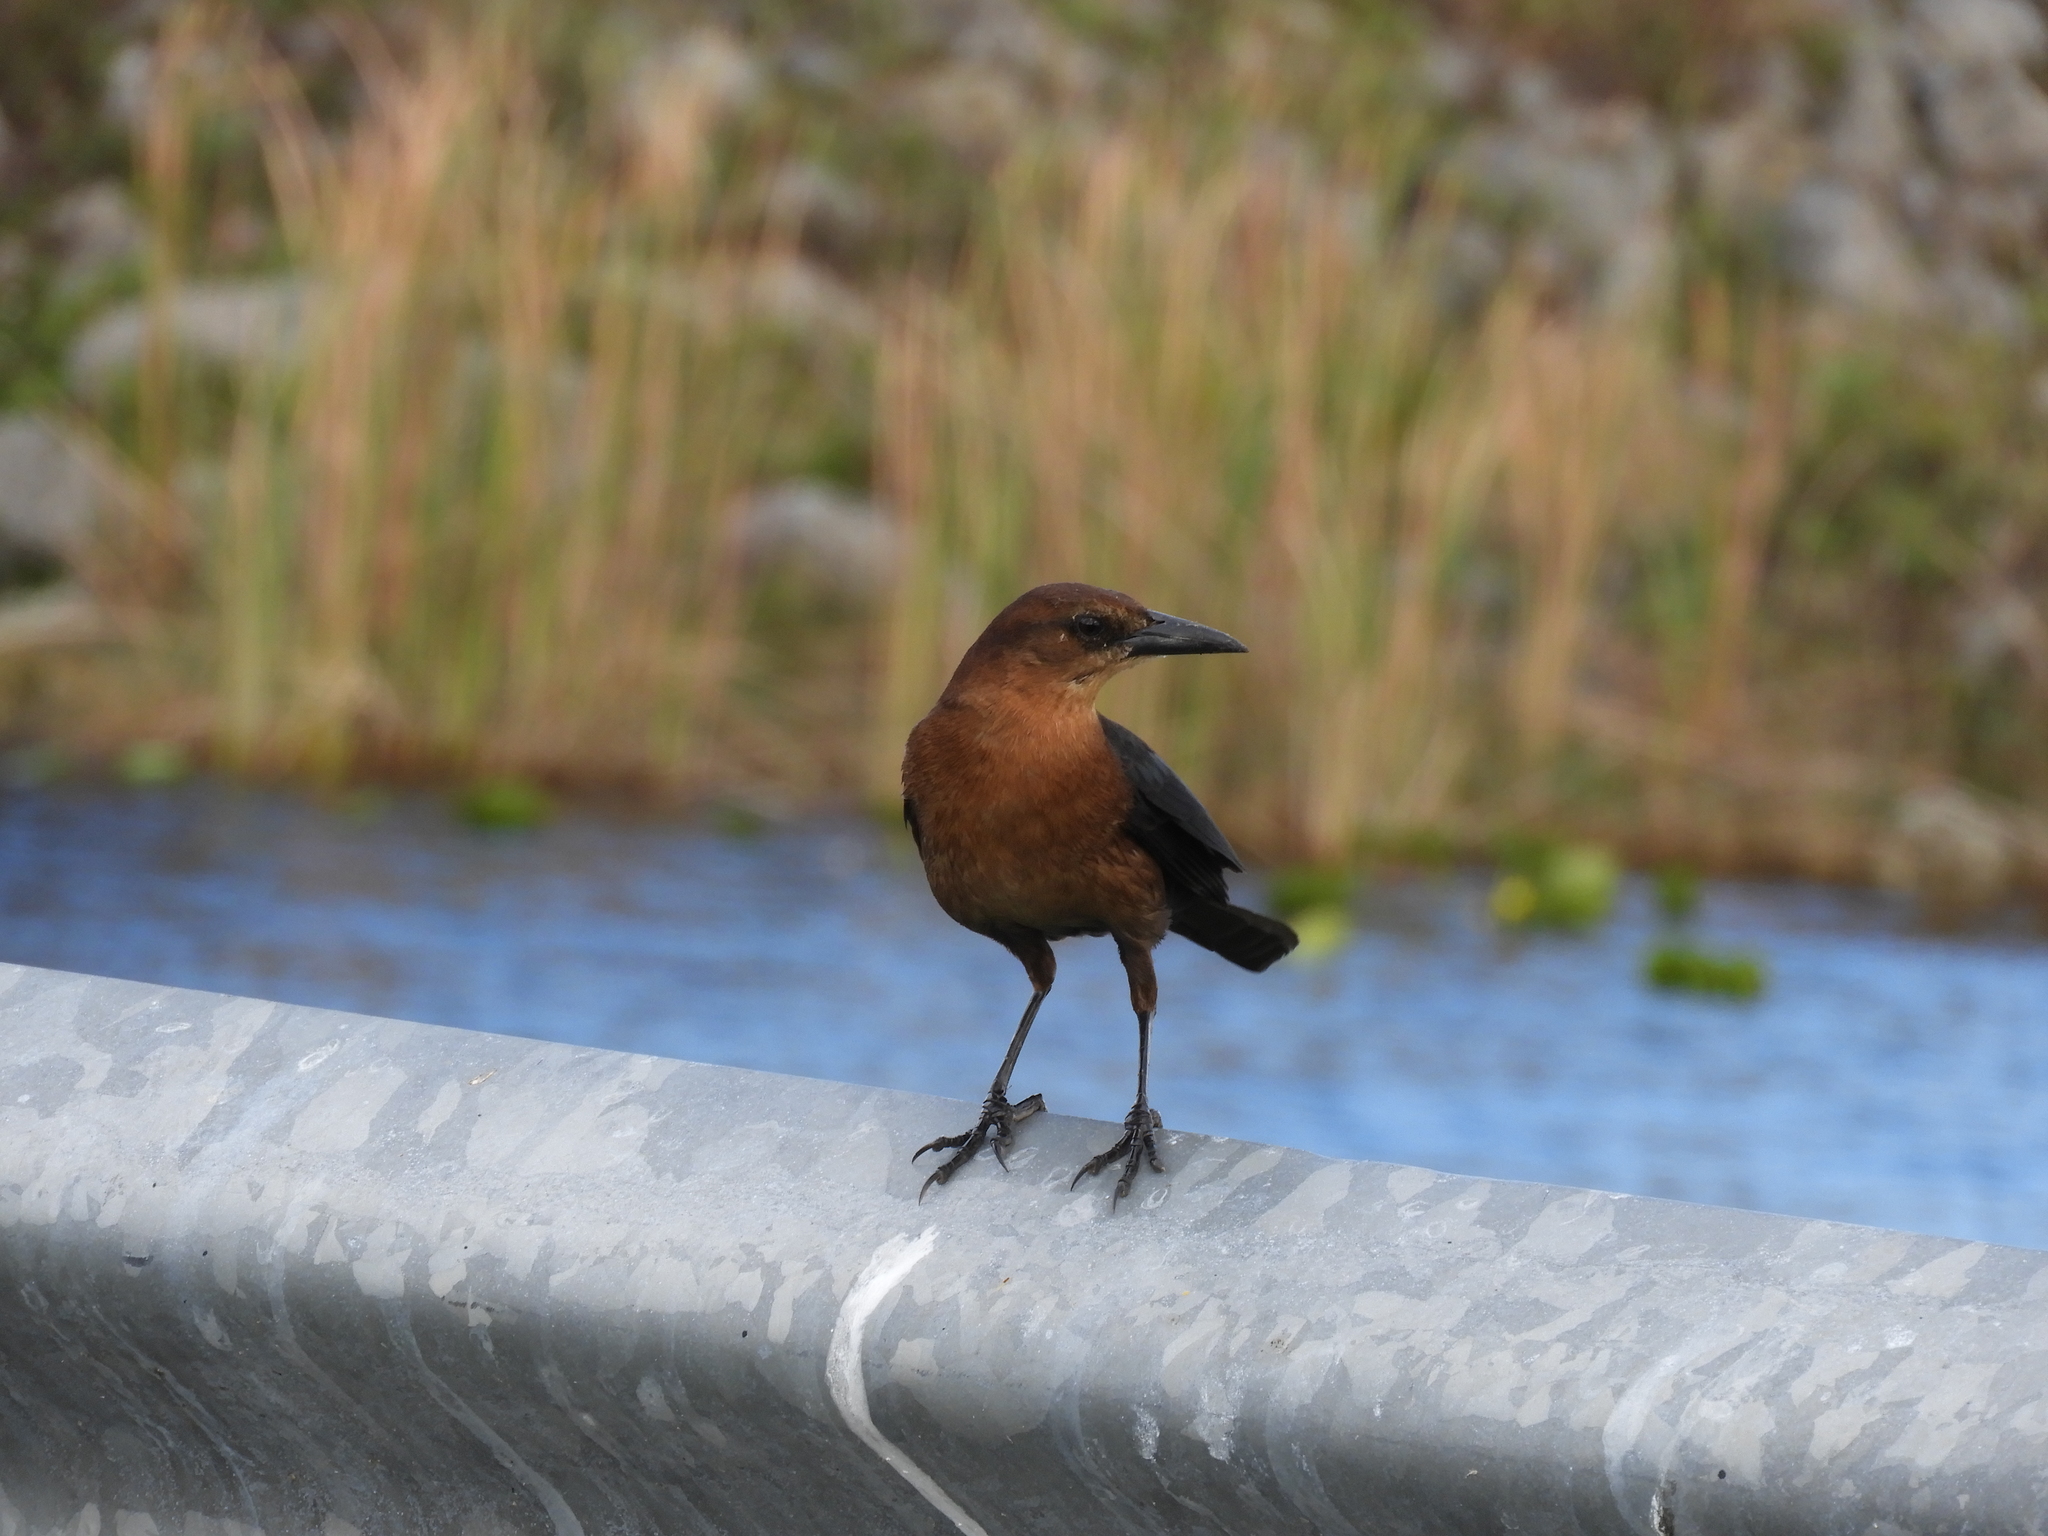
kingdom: Animalia
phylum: Chordata
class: Aves
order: Passeriformes
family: Icteridae
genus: Quiscalus
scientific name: Quiscalus major
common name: Boat-tailed grackle
